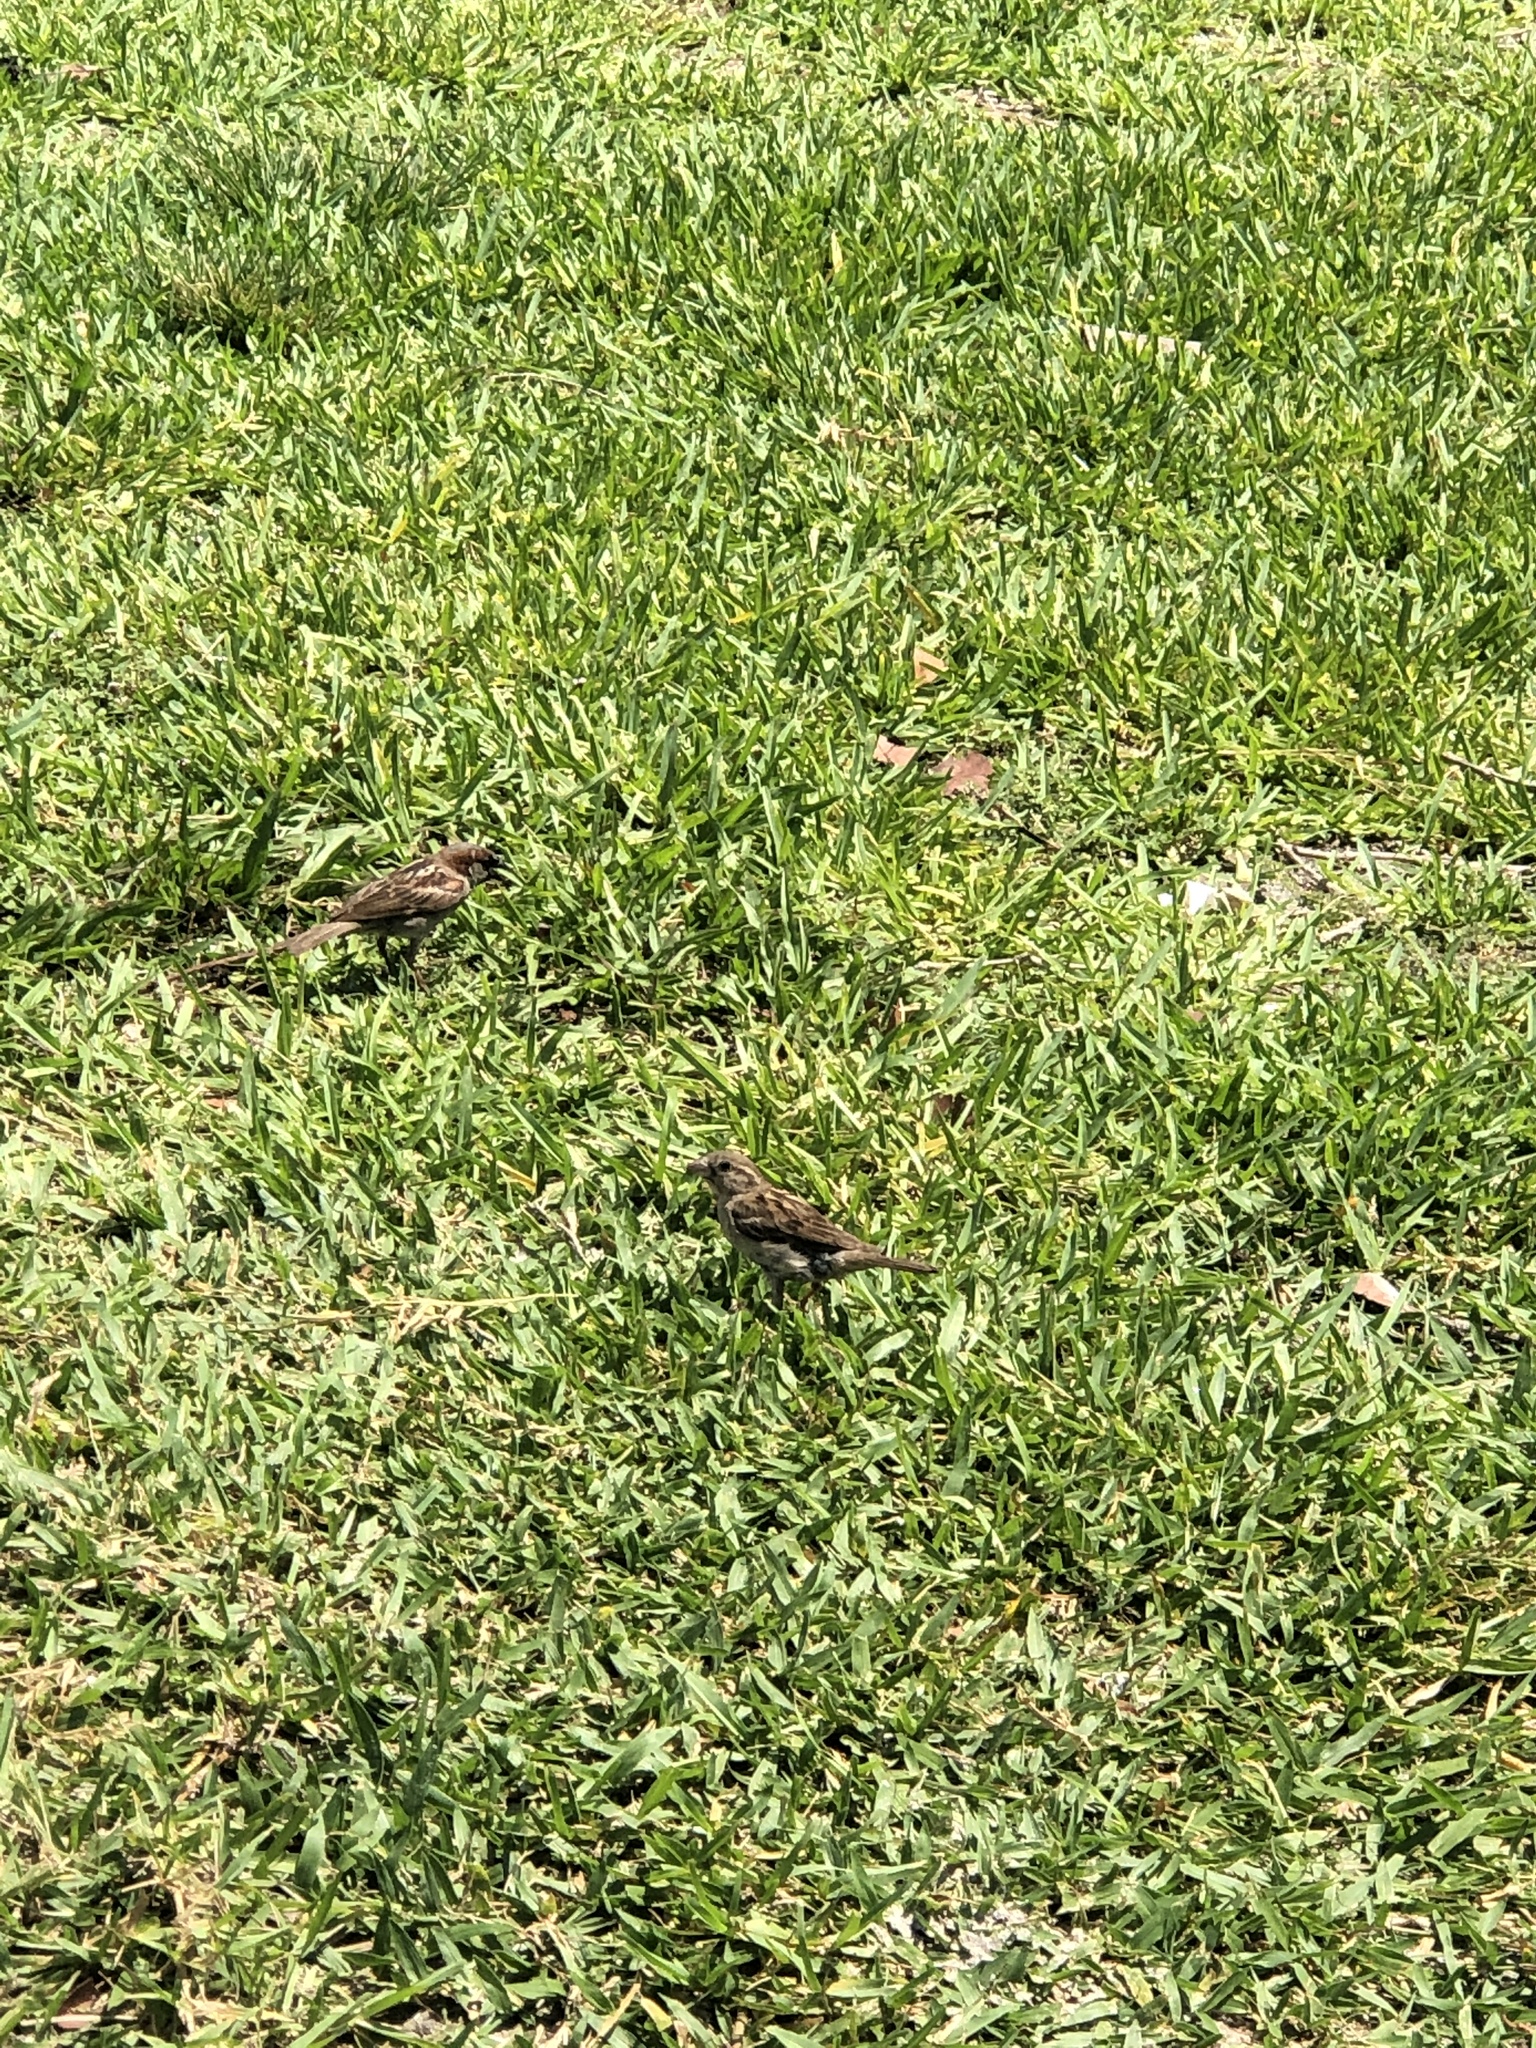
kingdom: Animalia
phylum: Chordata
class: Aves
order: Passeriformes
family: Passeridae
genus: Passer
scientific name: Passer domesticus
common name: House sparrow
